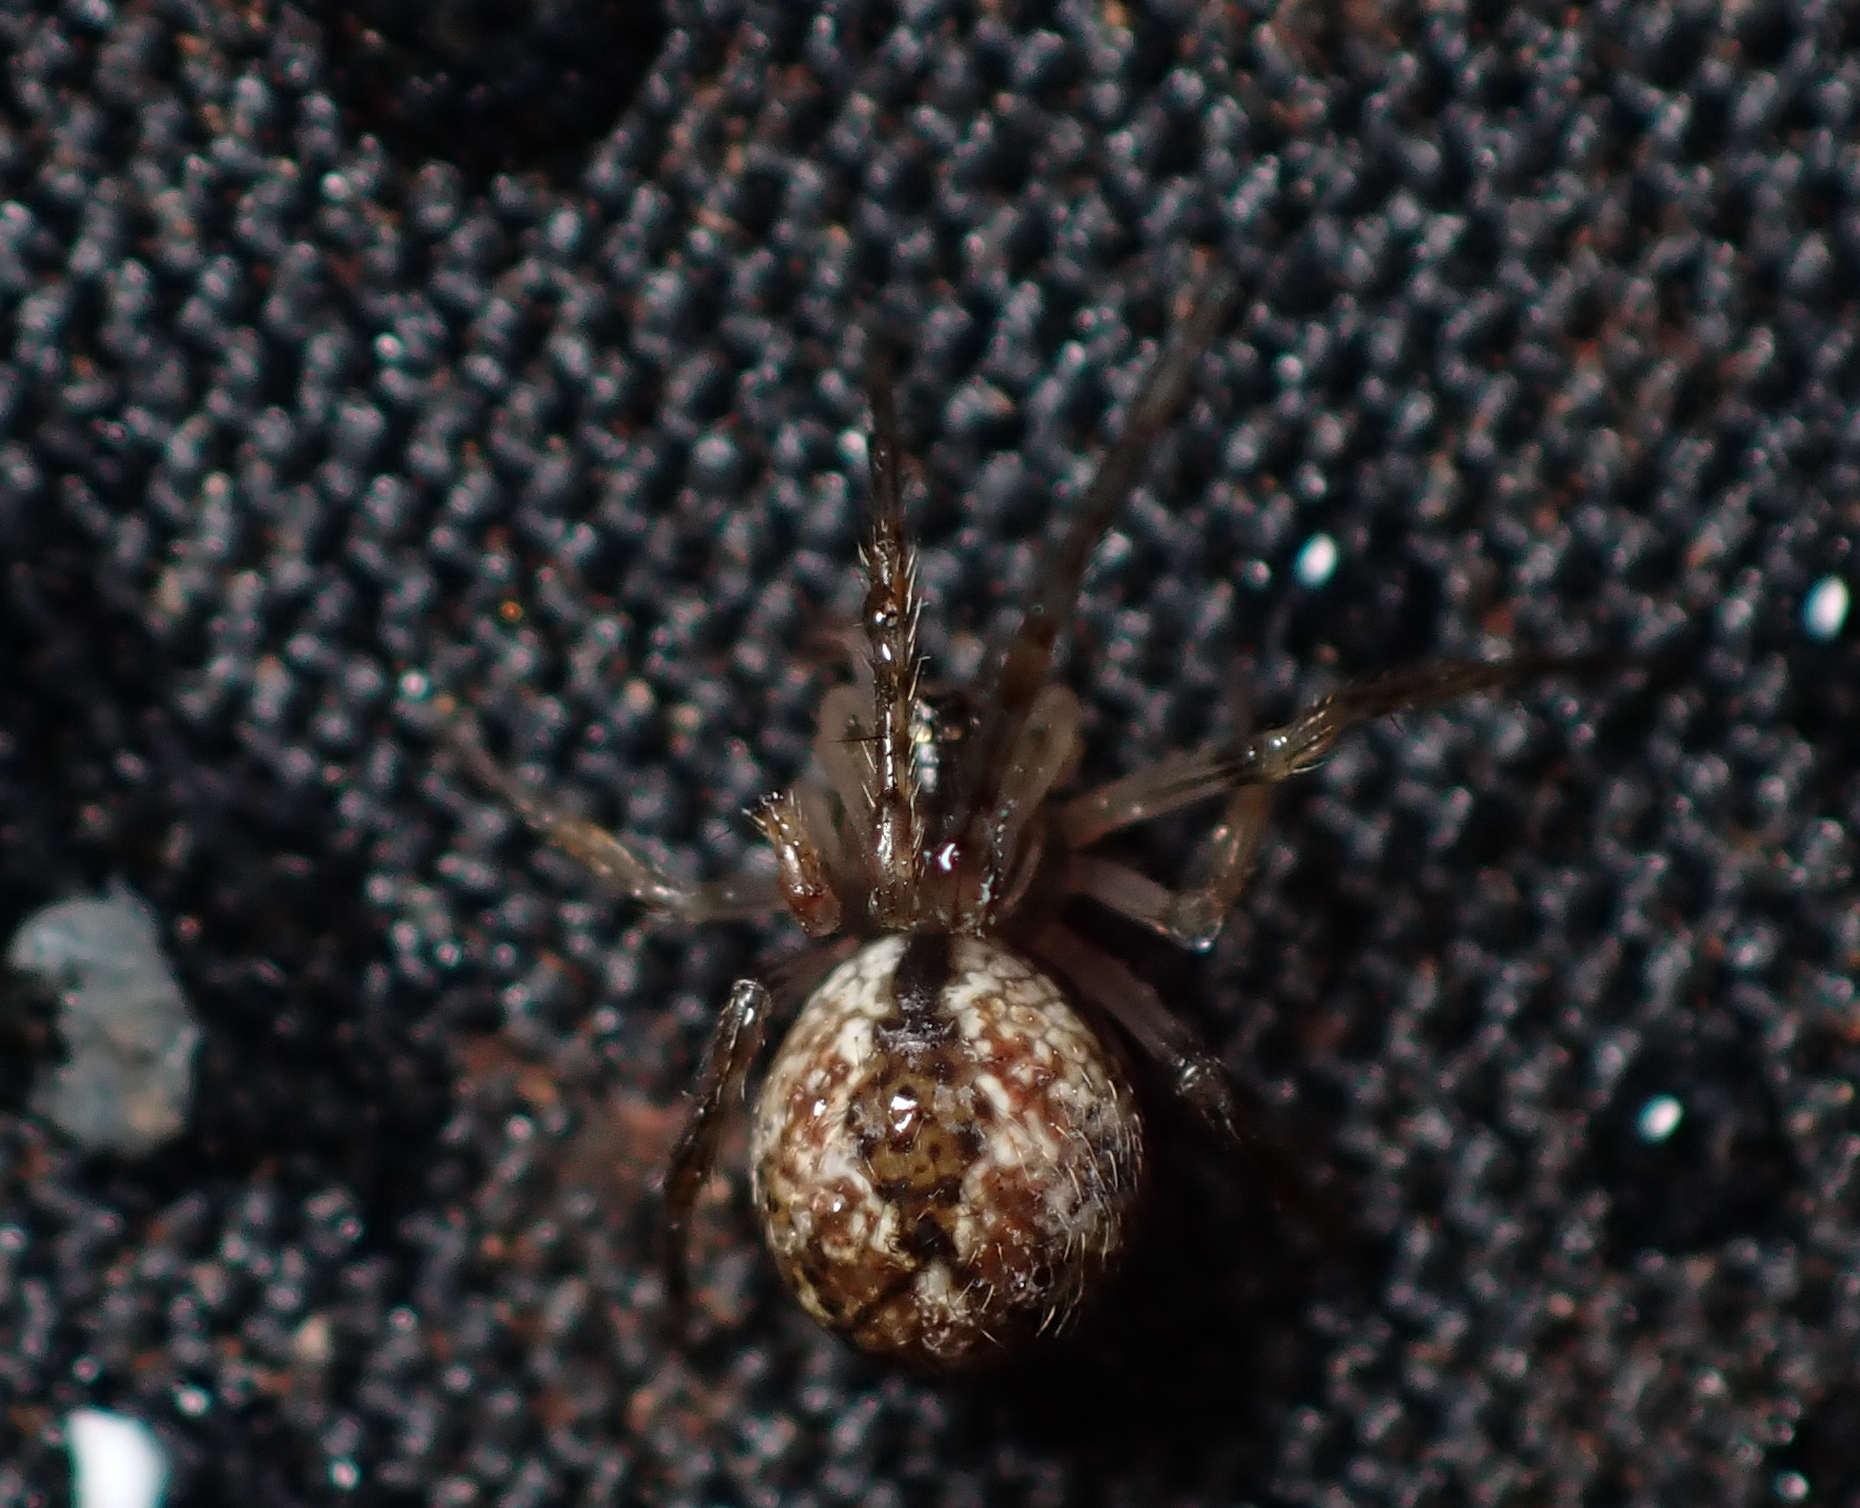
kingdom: Animalia
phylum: Arthropoda
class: Arachnida
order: Araneae
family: Theridiidae
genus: Cryptachaea
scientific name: Cryptachaea veruculata
